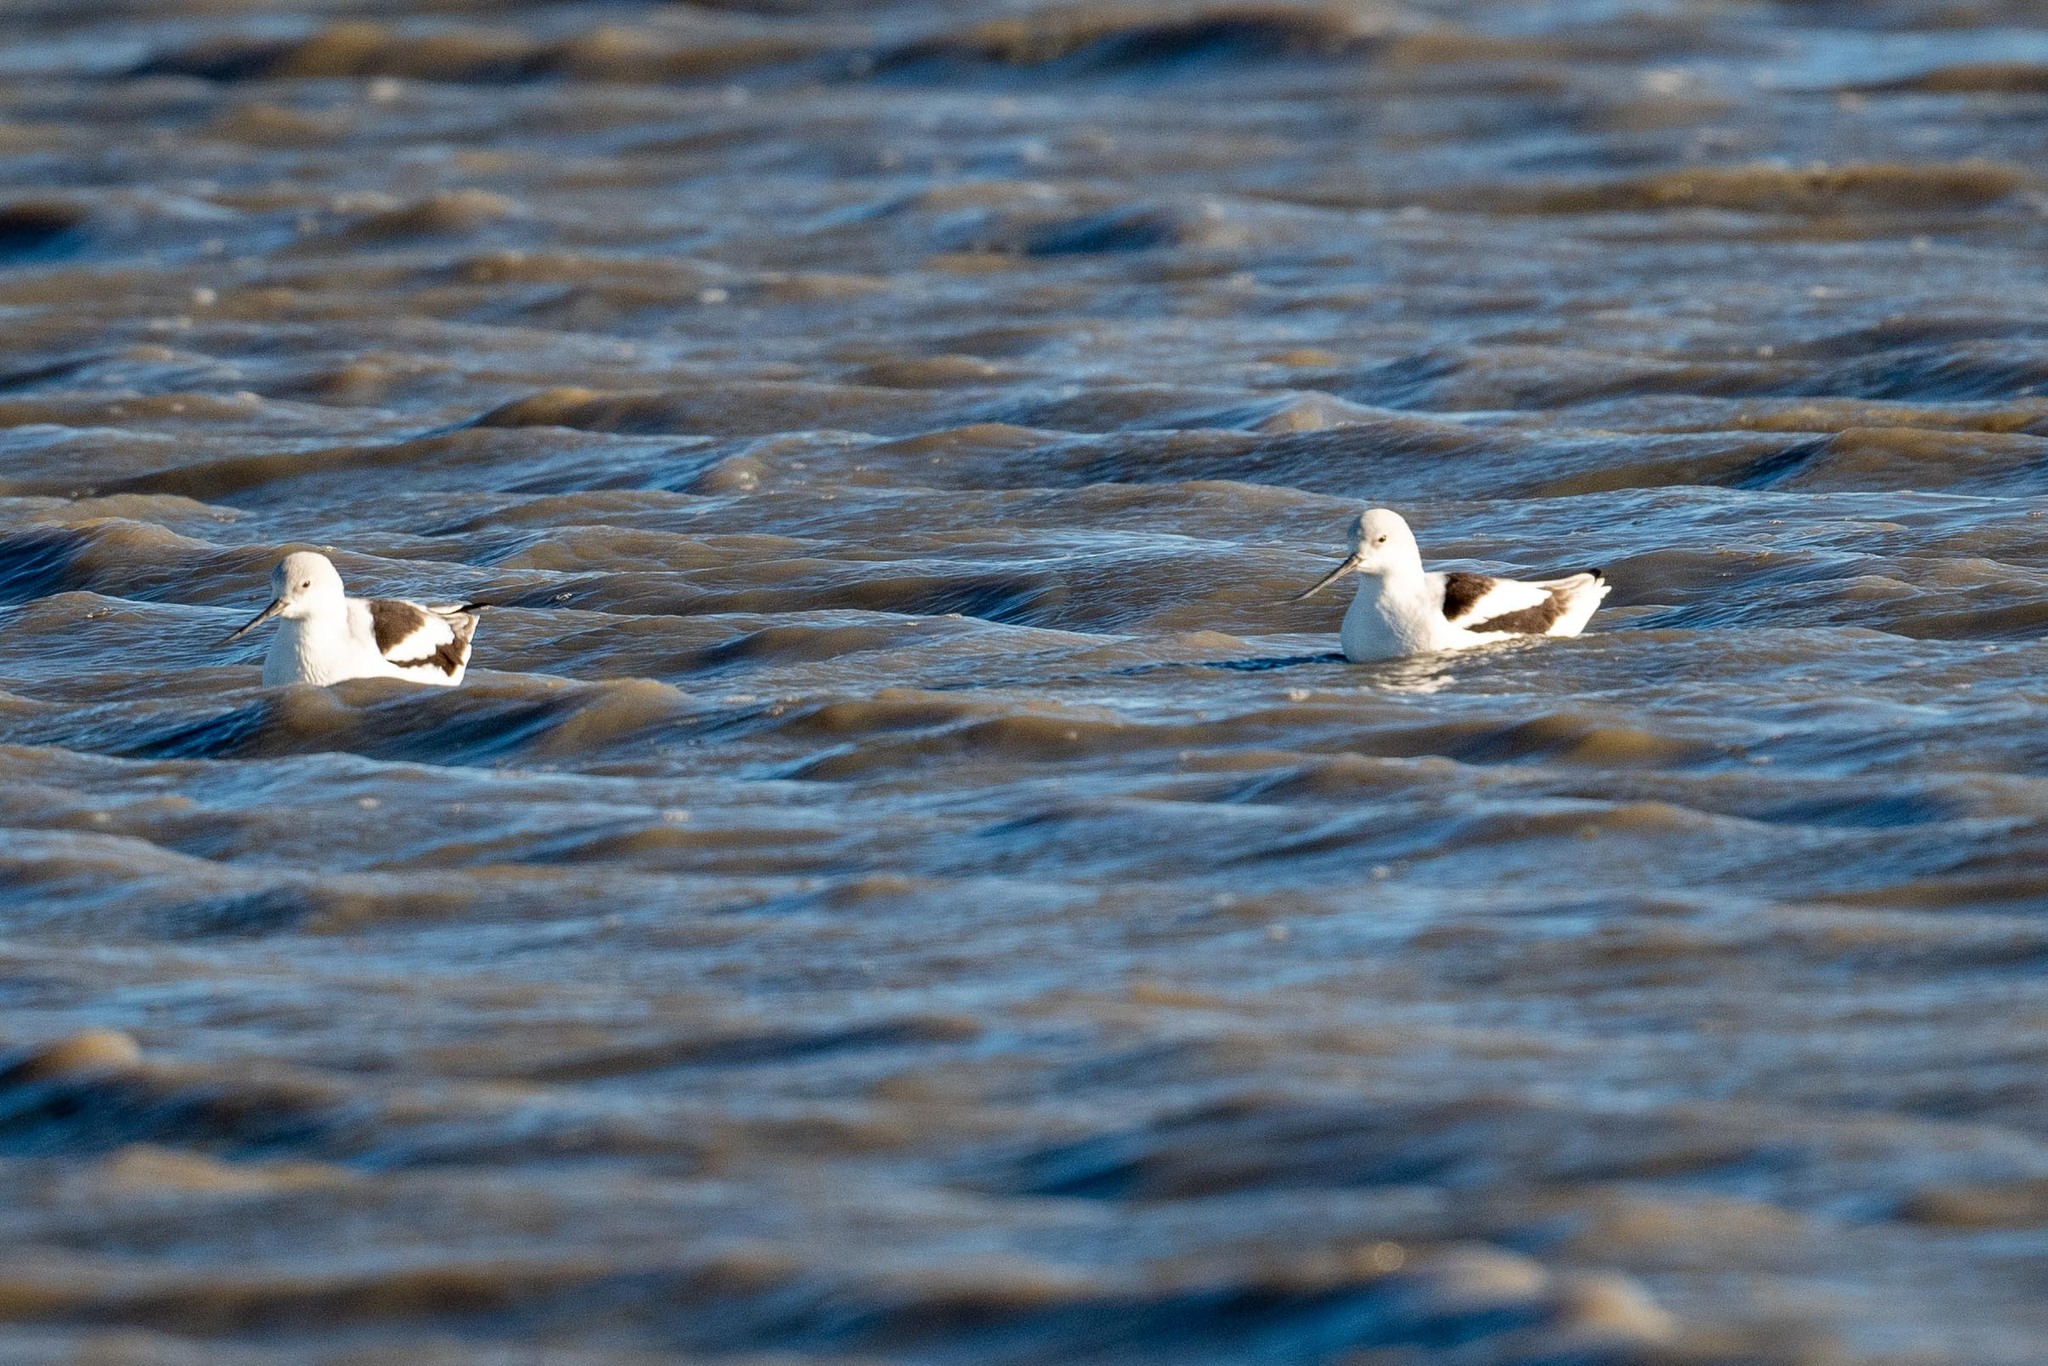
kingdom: Animalia
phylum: Chordata
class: Aves
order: Charadriiformes
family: Recurvirostridae
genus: Recurvirostra
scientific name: Recurvirostra americana
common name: American avocet
